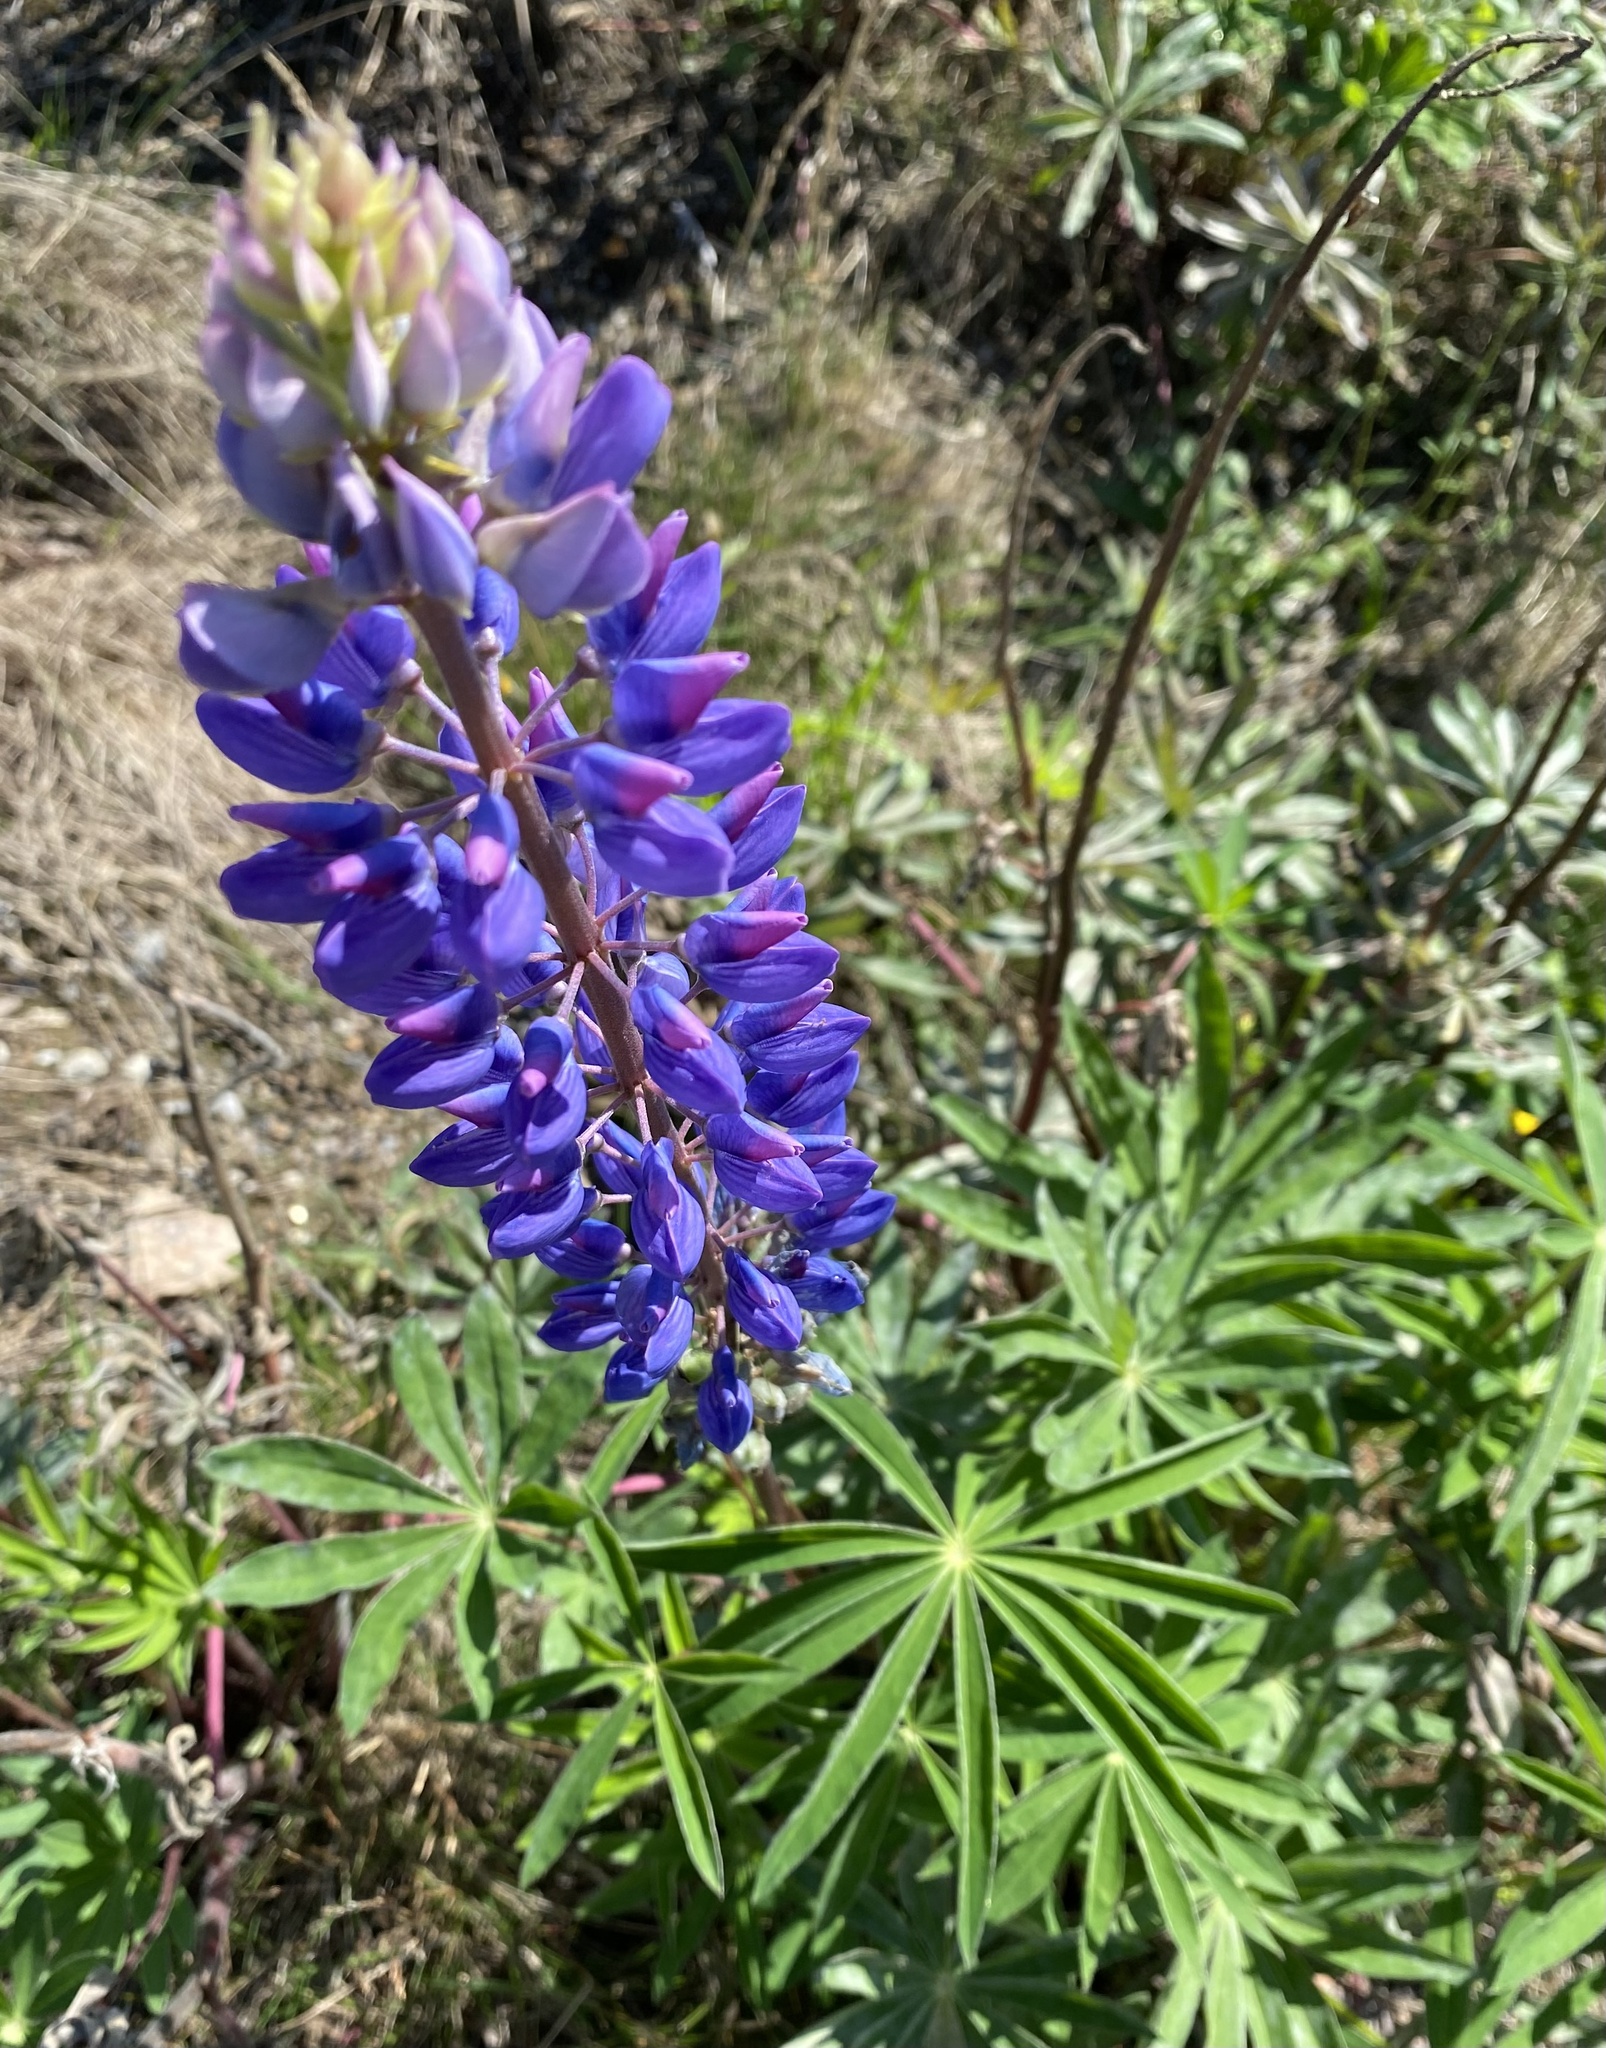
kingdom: Plantae
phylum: Tracheophyta
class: Magnoliopsida
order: Fabales
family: Fabaceae
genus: Lupinus
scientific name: Lupinus polyphyllus
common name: Garden lupin
